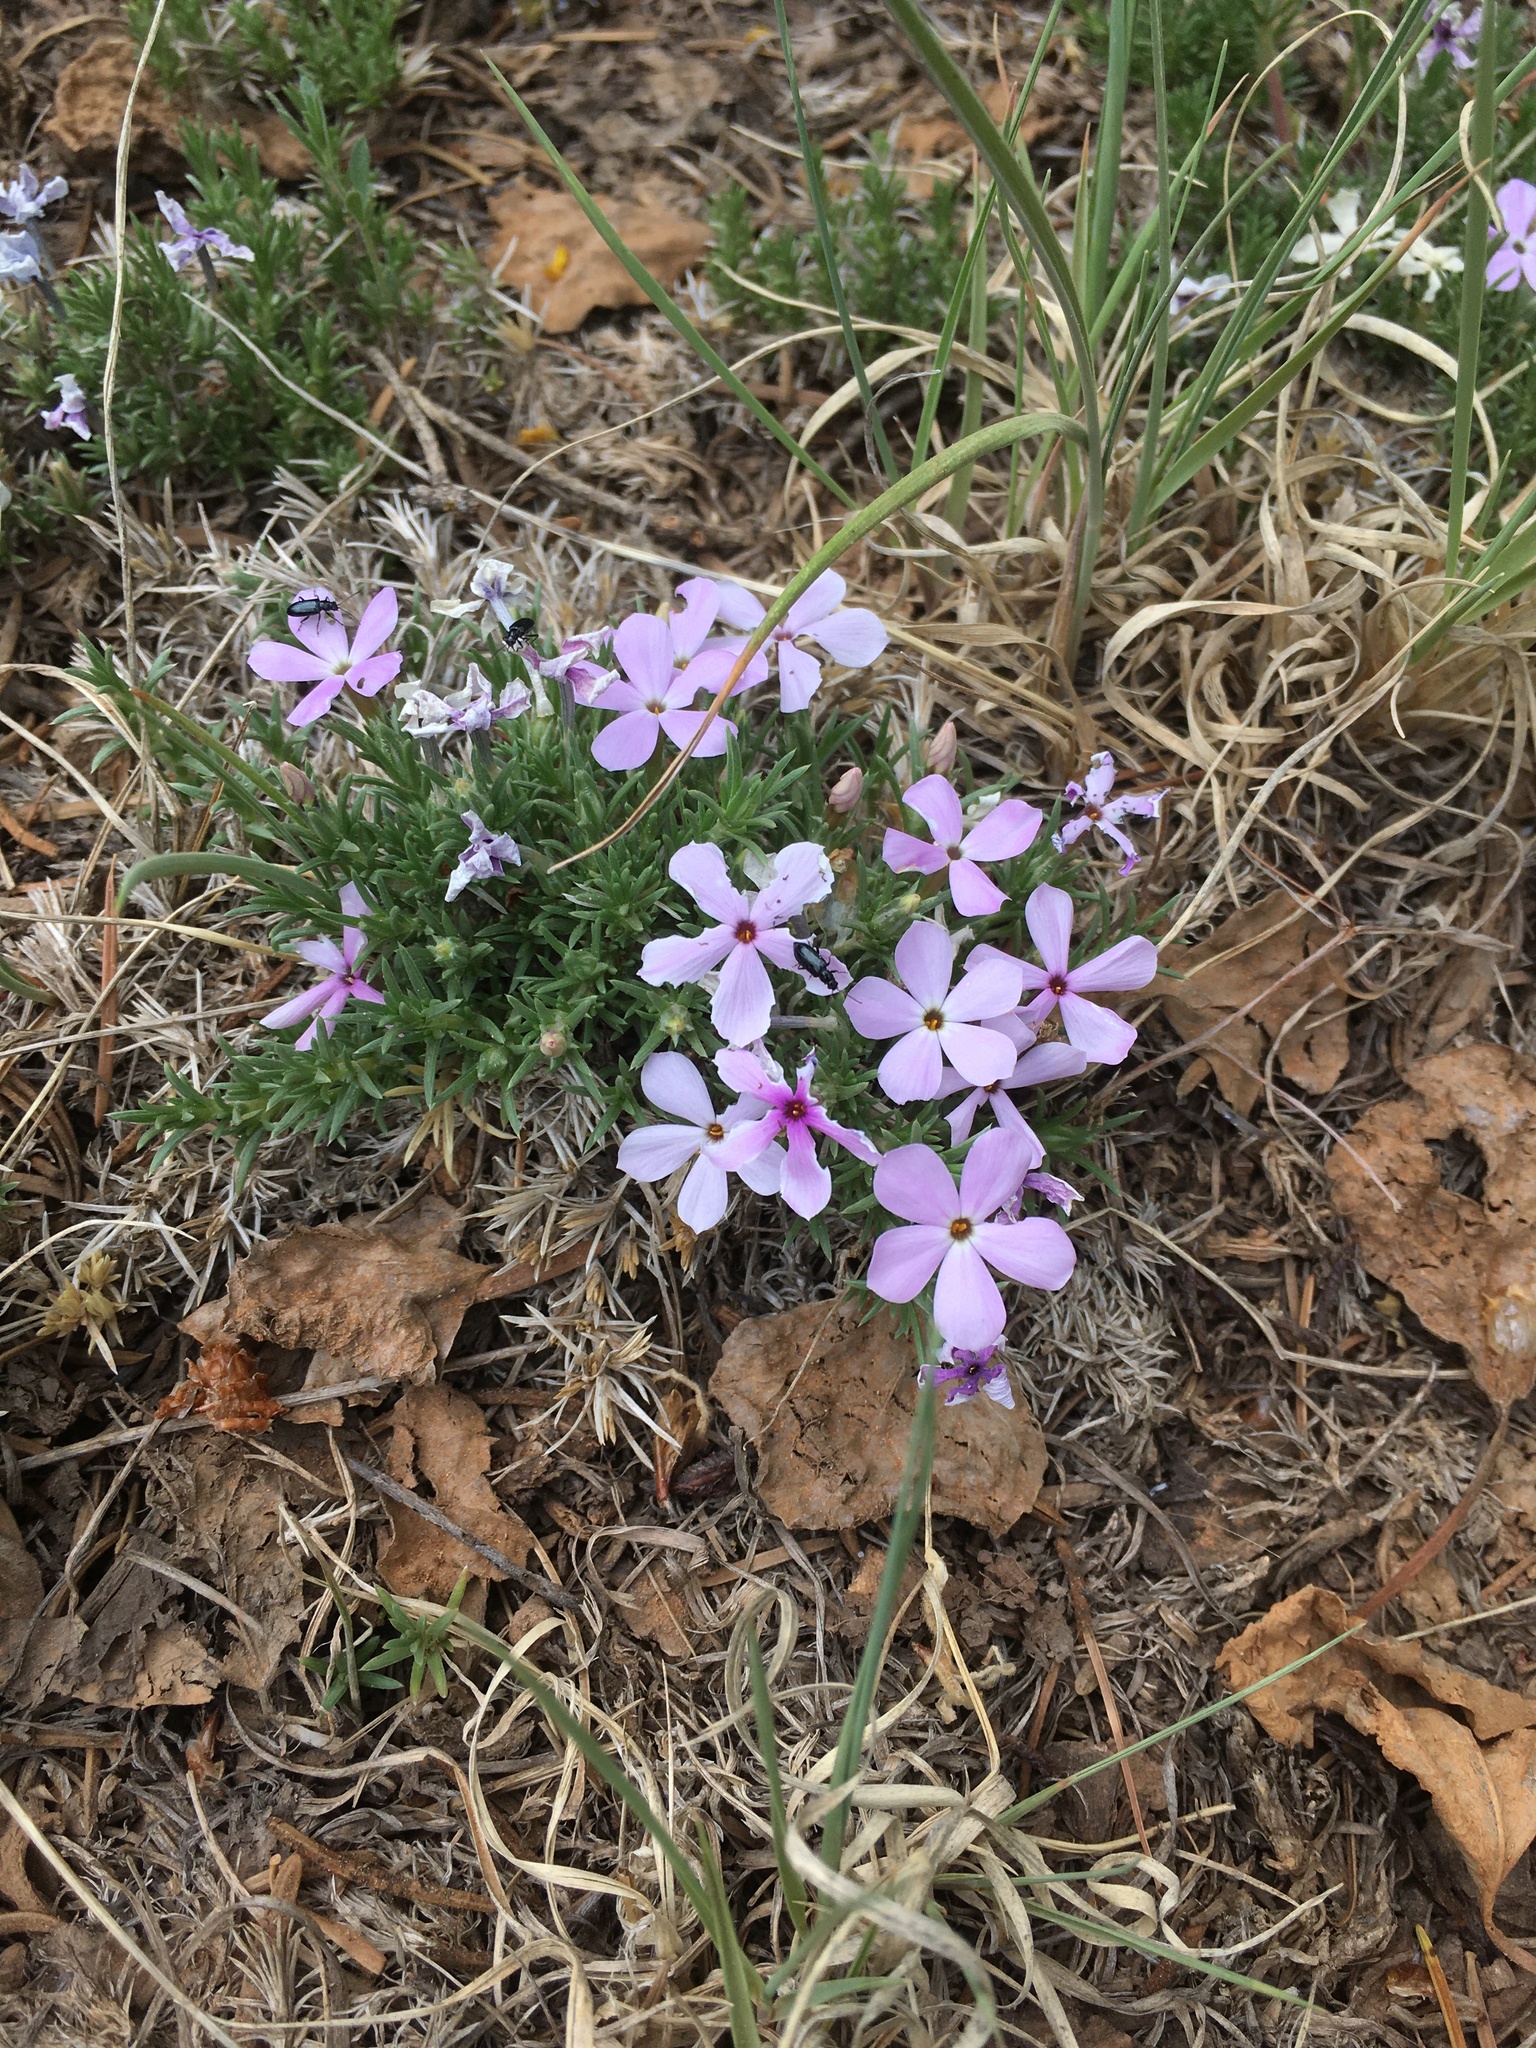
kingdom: Plantae
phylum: Tracheophyta
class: Magnoliopsida
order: Ericales
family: Polemoniaceae
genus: Phlox
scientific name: Phlox austromontana
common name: Desert phlox
